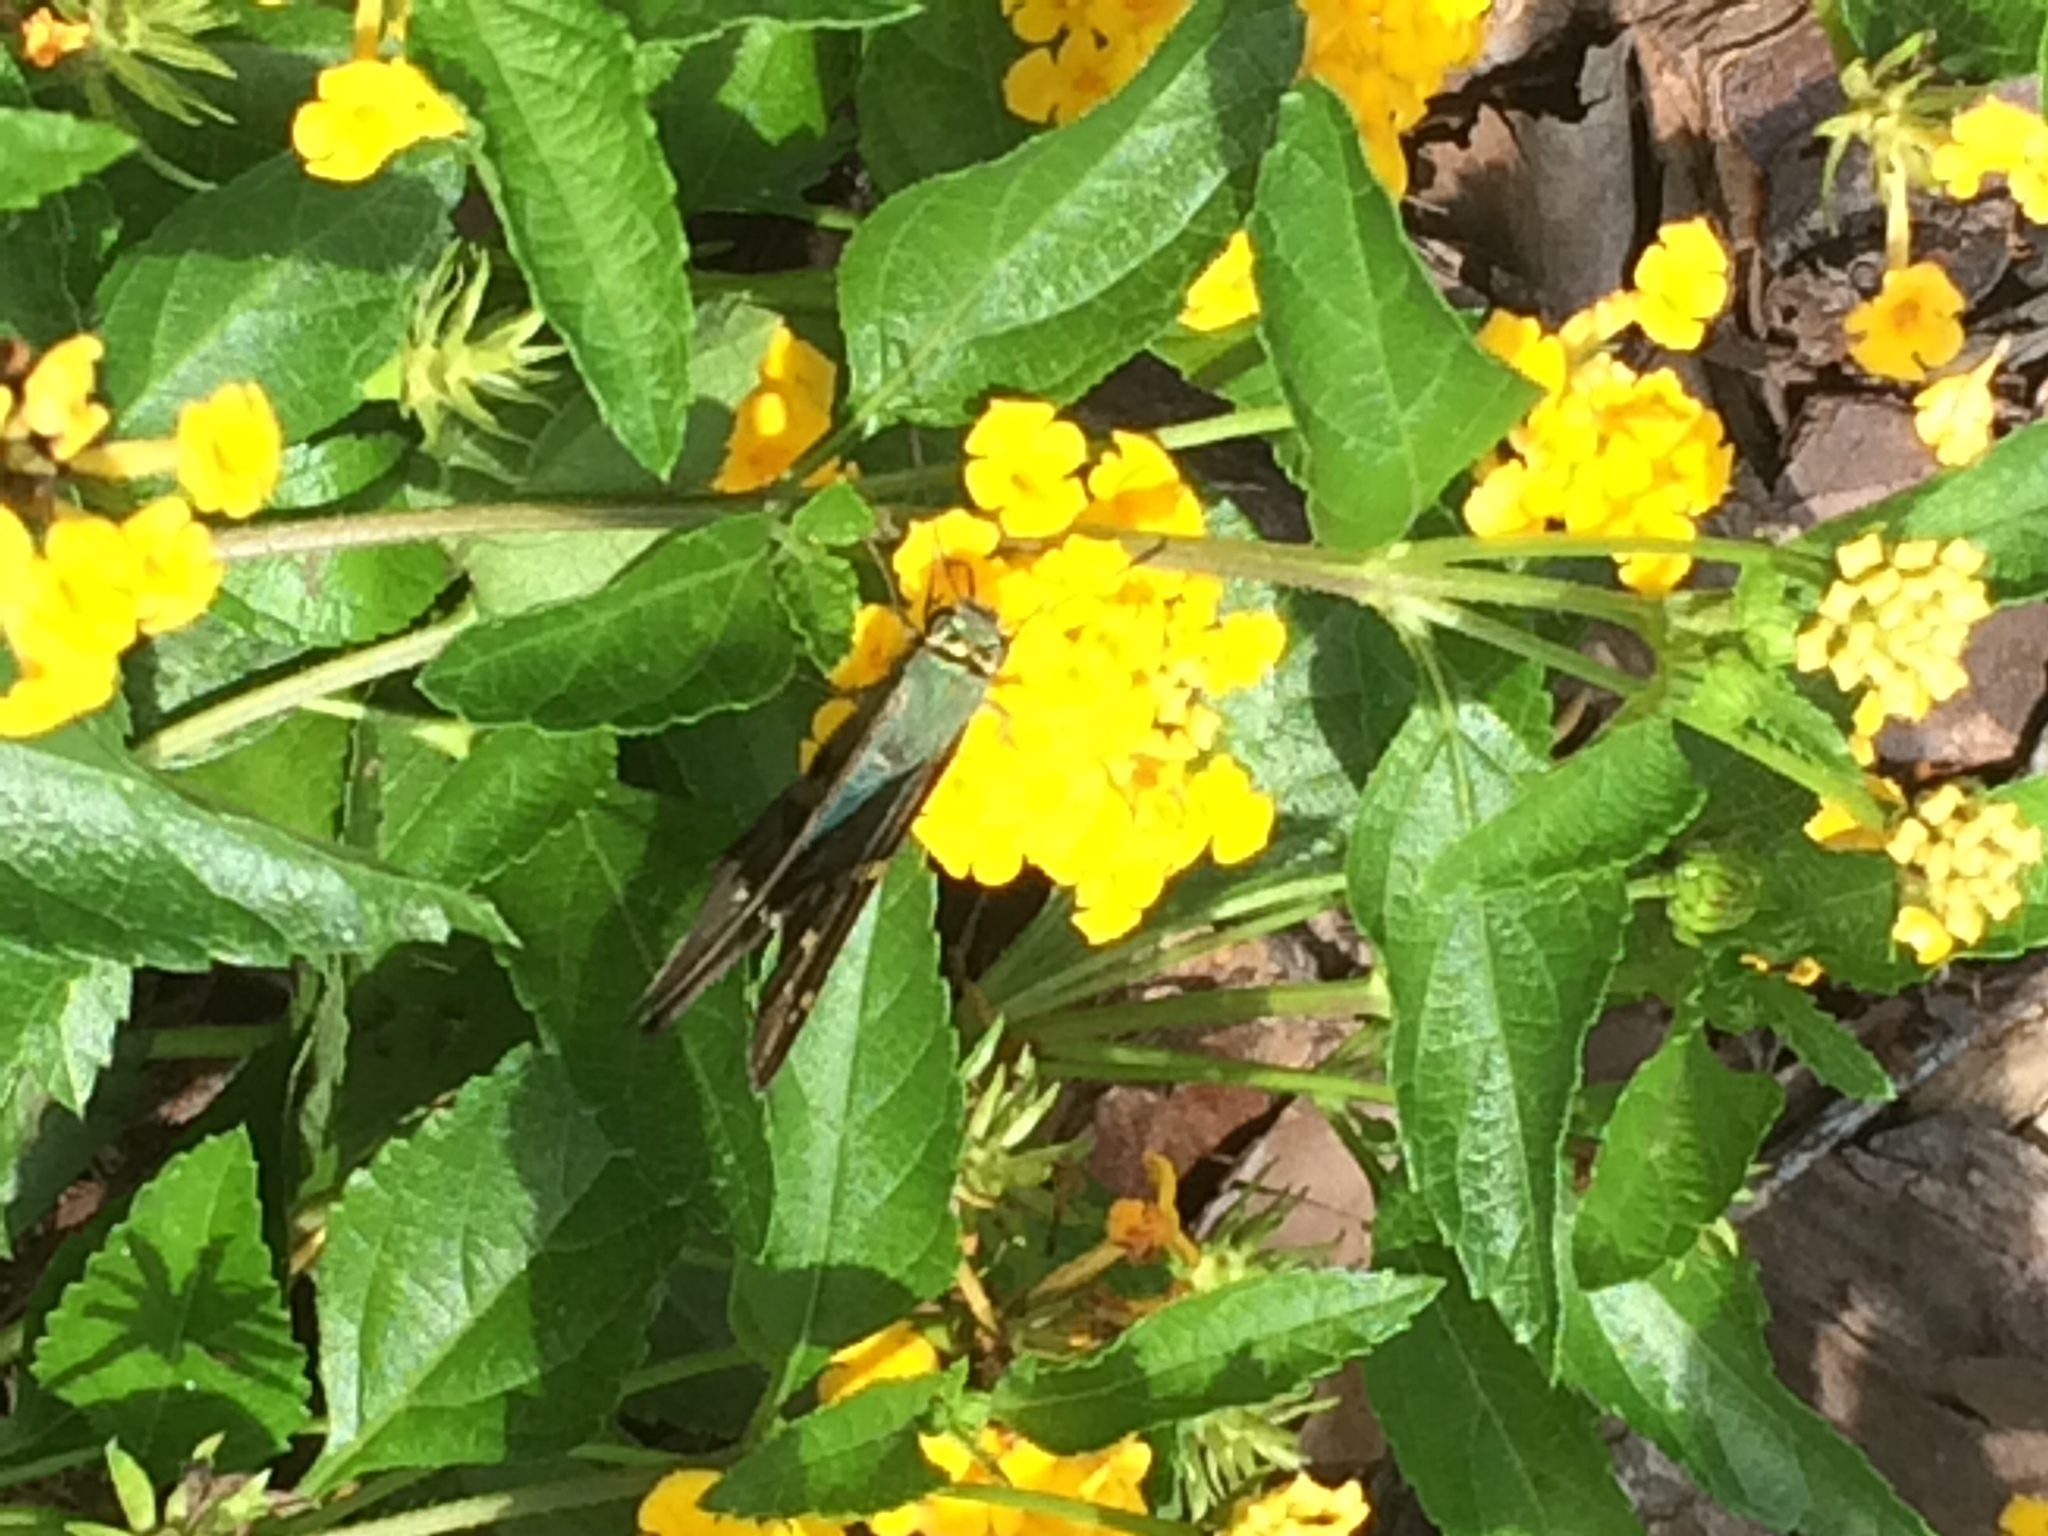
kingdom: Animalia
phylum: Arthropoda
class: Insecta
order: Lepidoptera
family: Hesperiidae
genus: Urbanus
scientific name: Urbanus proteus
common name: Long-tailed skipper
